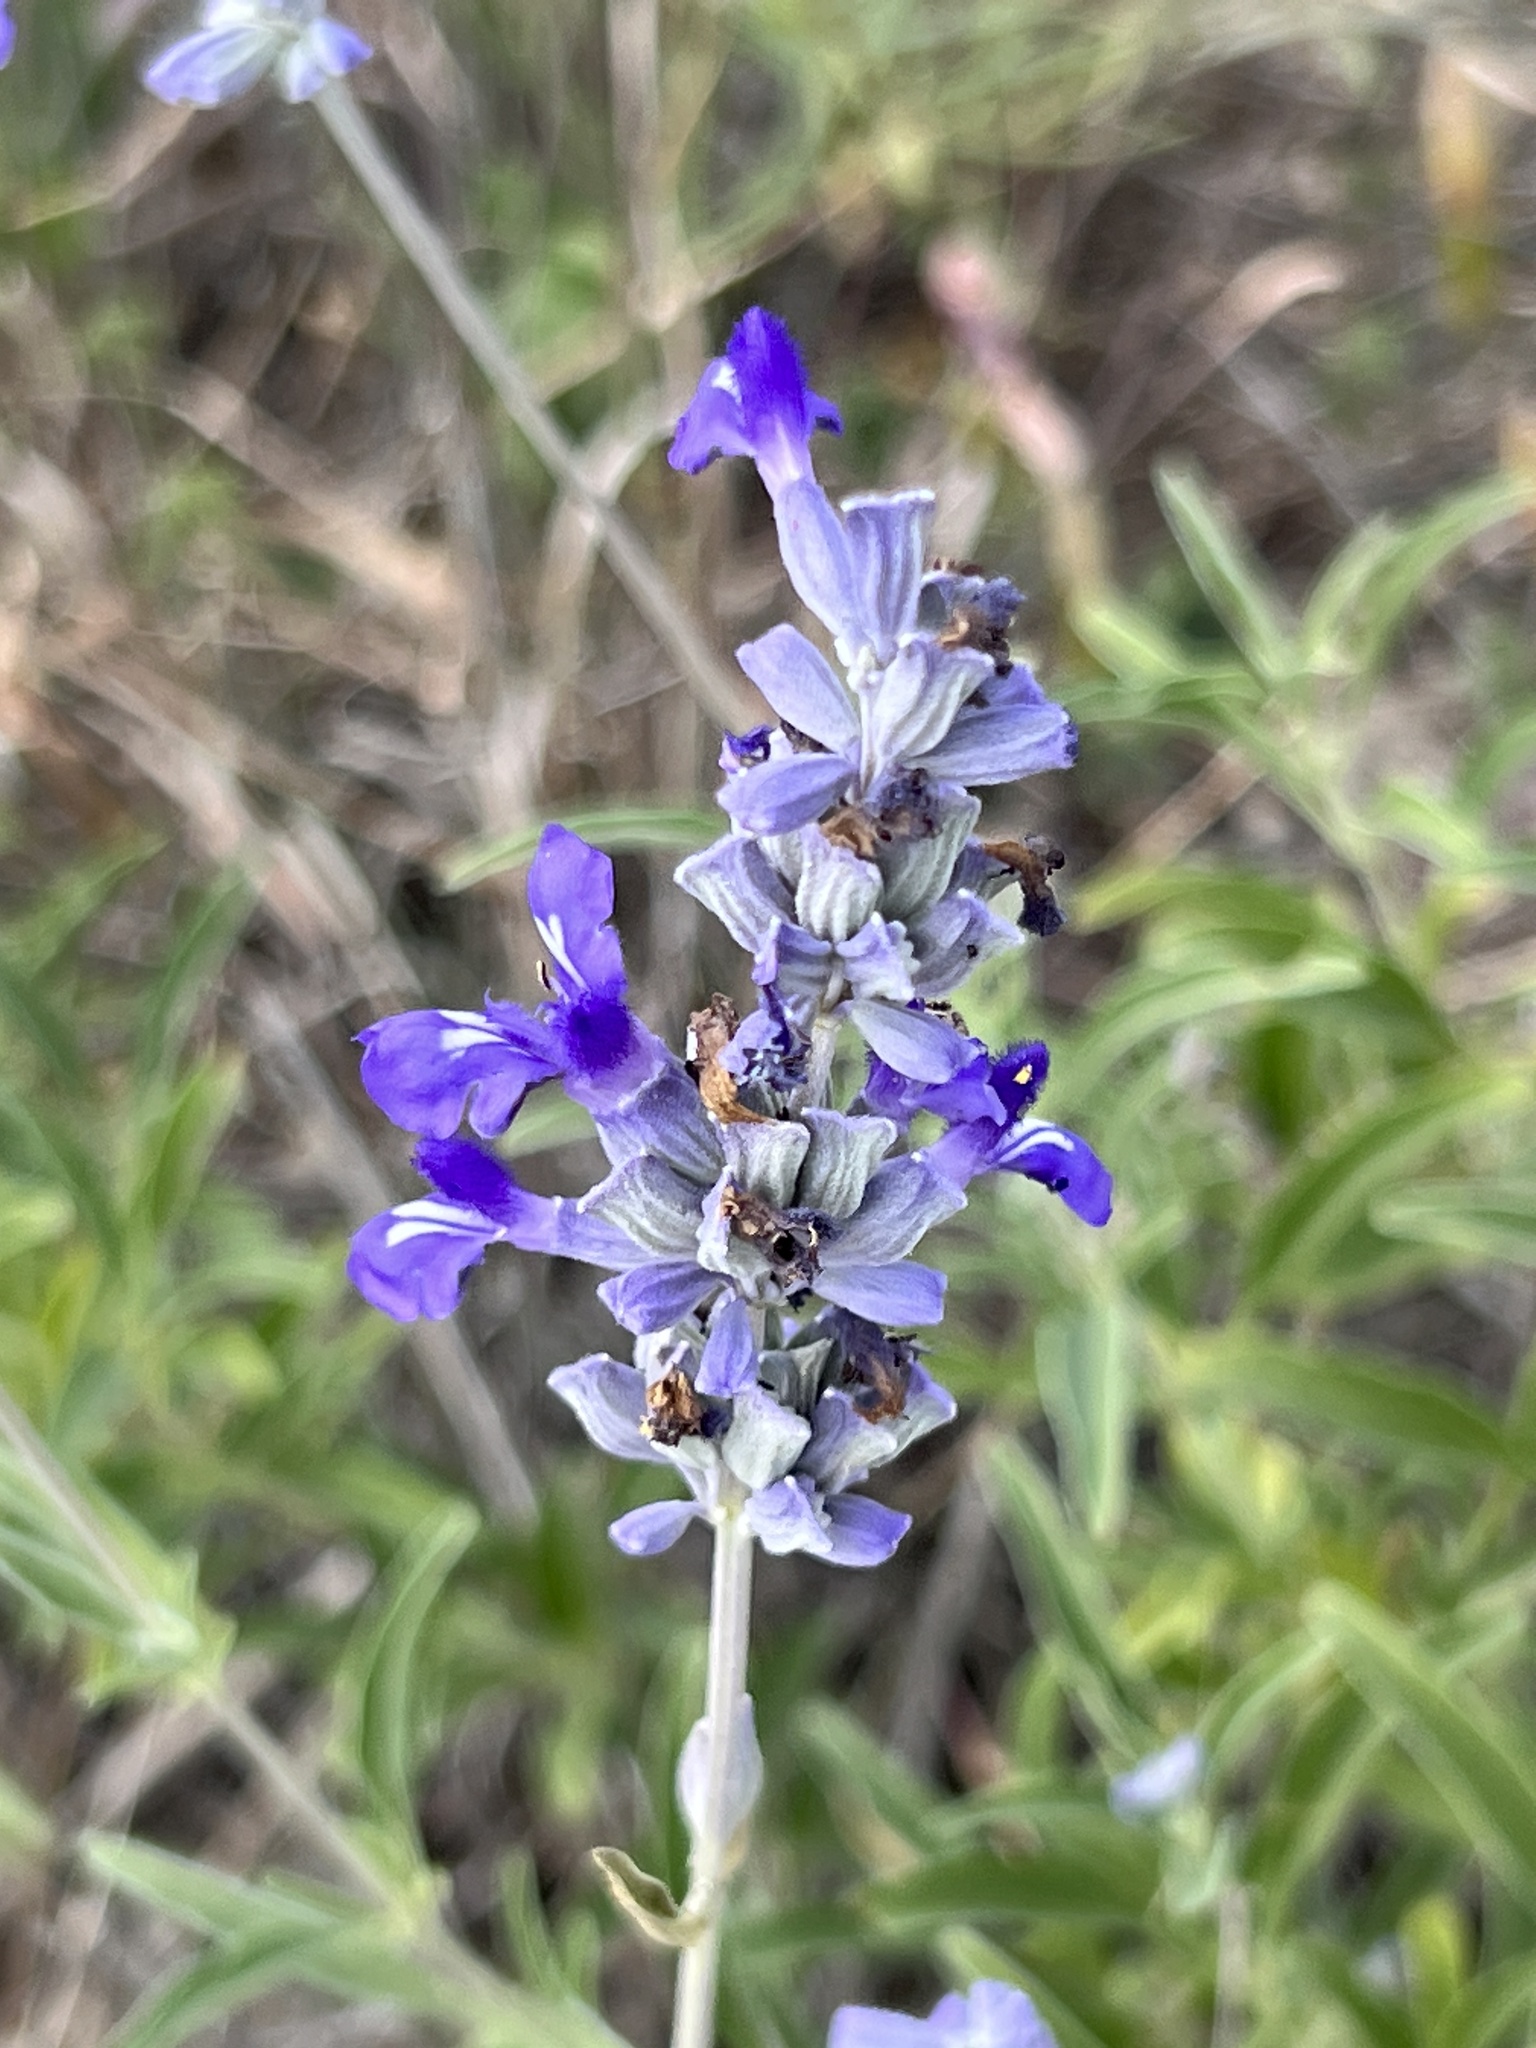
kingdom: Plantae
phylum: Tracheophyta
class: Magnoliopsida
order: Lamiales
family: Lamiaceae
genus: Salvia
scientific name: Salvia farinacea
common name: Mealy sage
